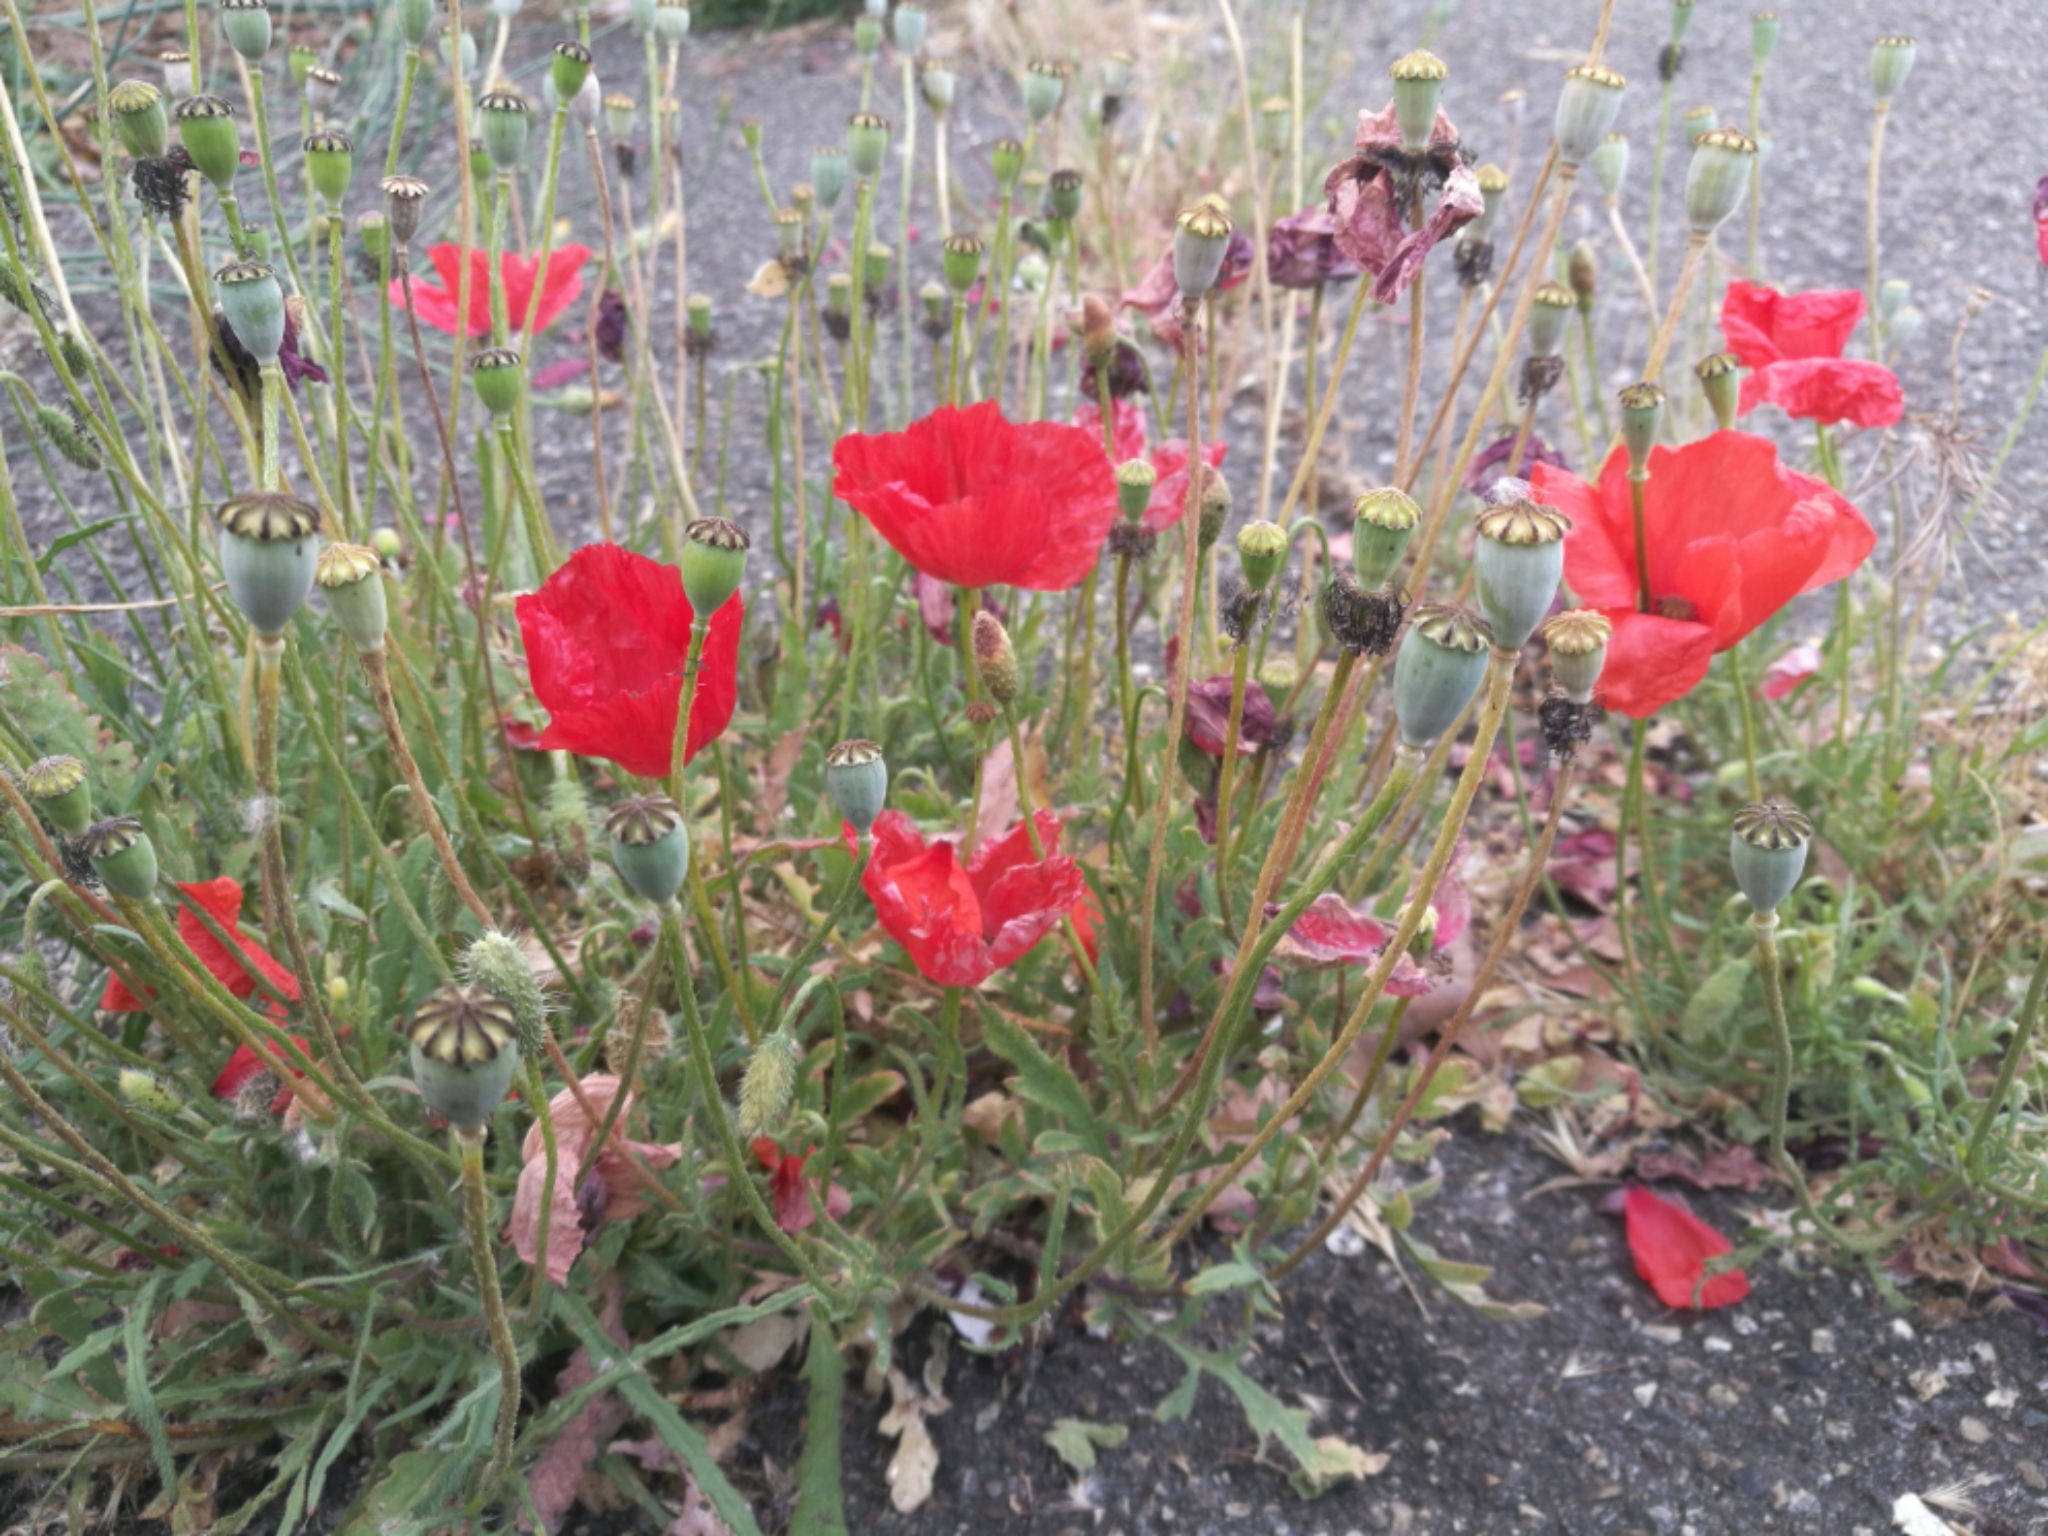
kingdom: Plantae
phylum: Tracheophyta
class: Magnoliopsida
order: Ranunculales
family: Papaveraceae
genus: Papaver
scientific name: Papaver rhoeas
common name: Corn poppy
